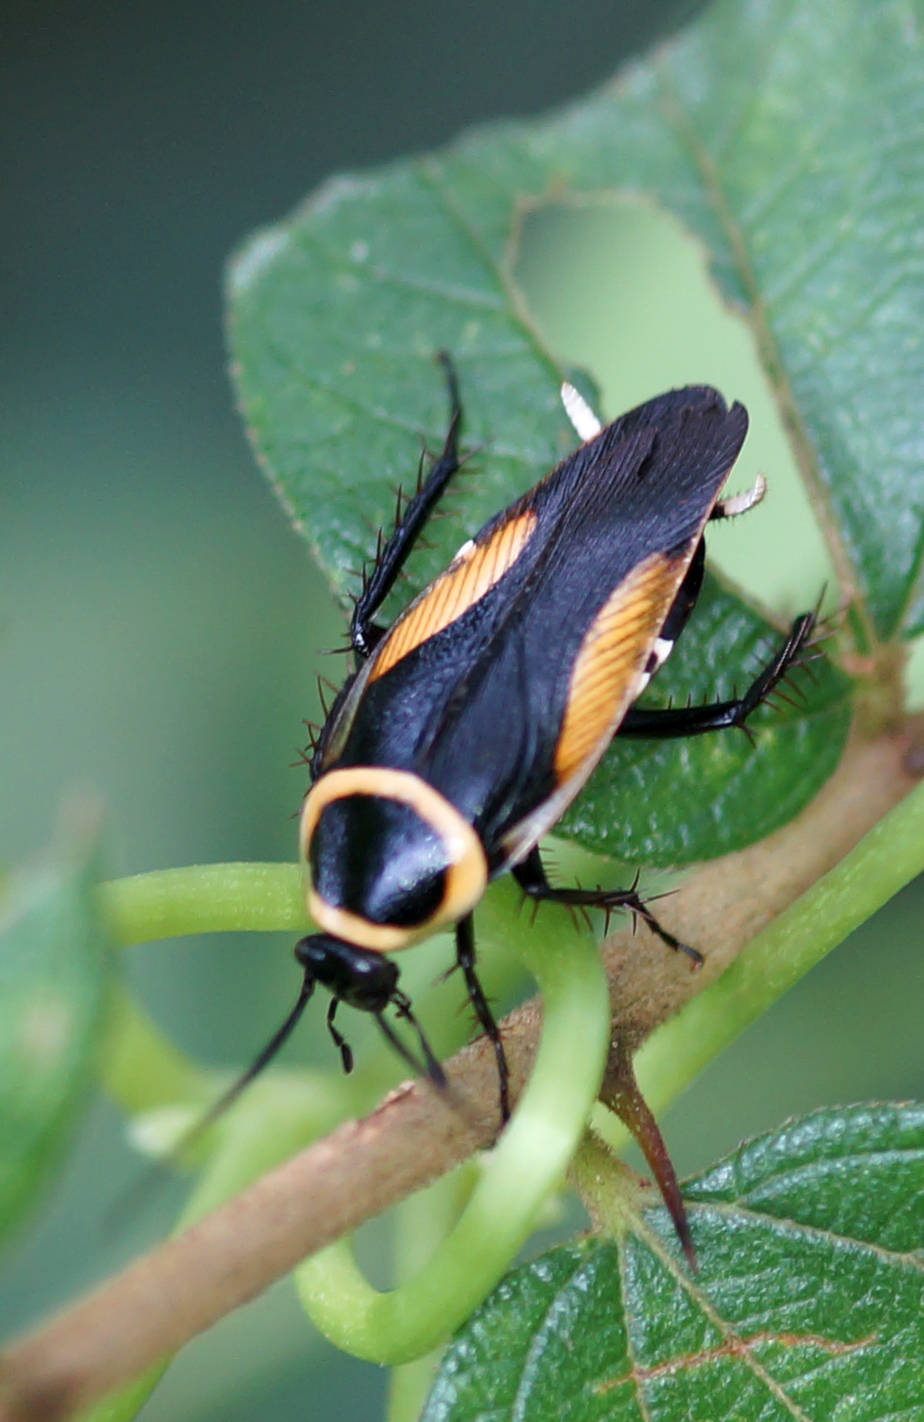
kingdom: Animalia
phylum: Arthropoda
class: Insecta
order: Blattodea
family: Ectobiidae
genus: Hemithyrsocera
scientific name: Hemithyrsocera vittata
